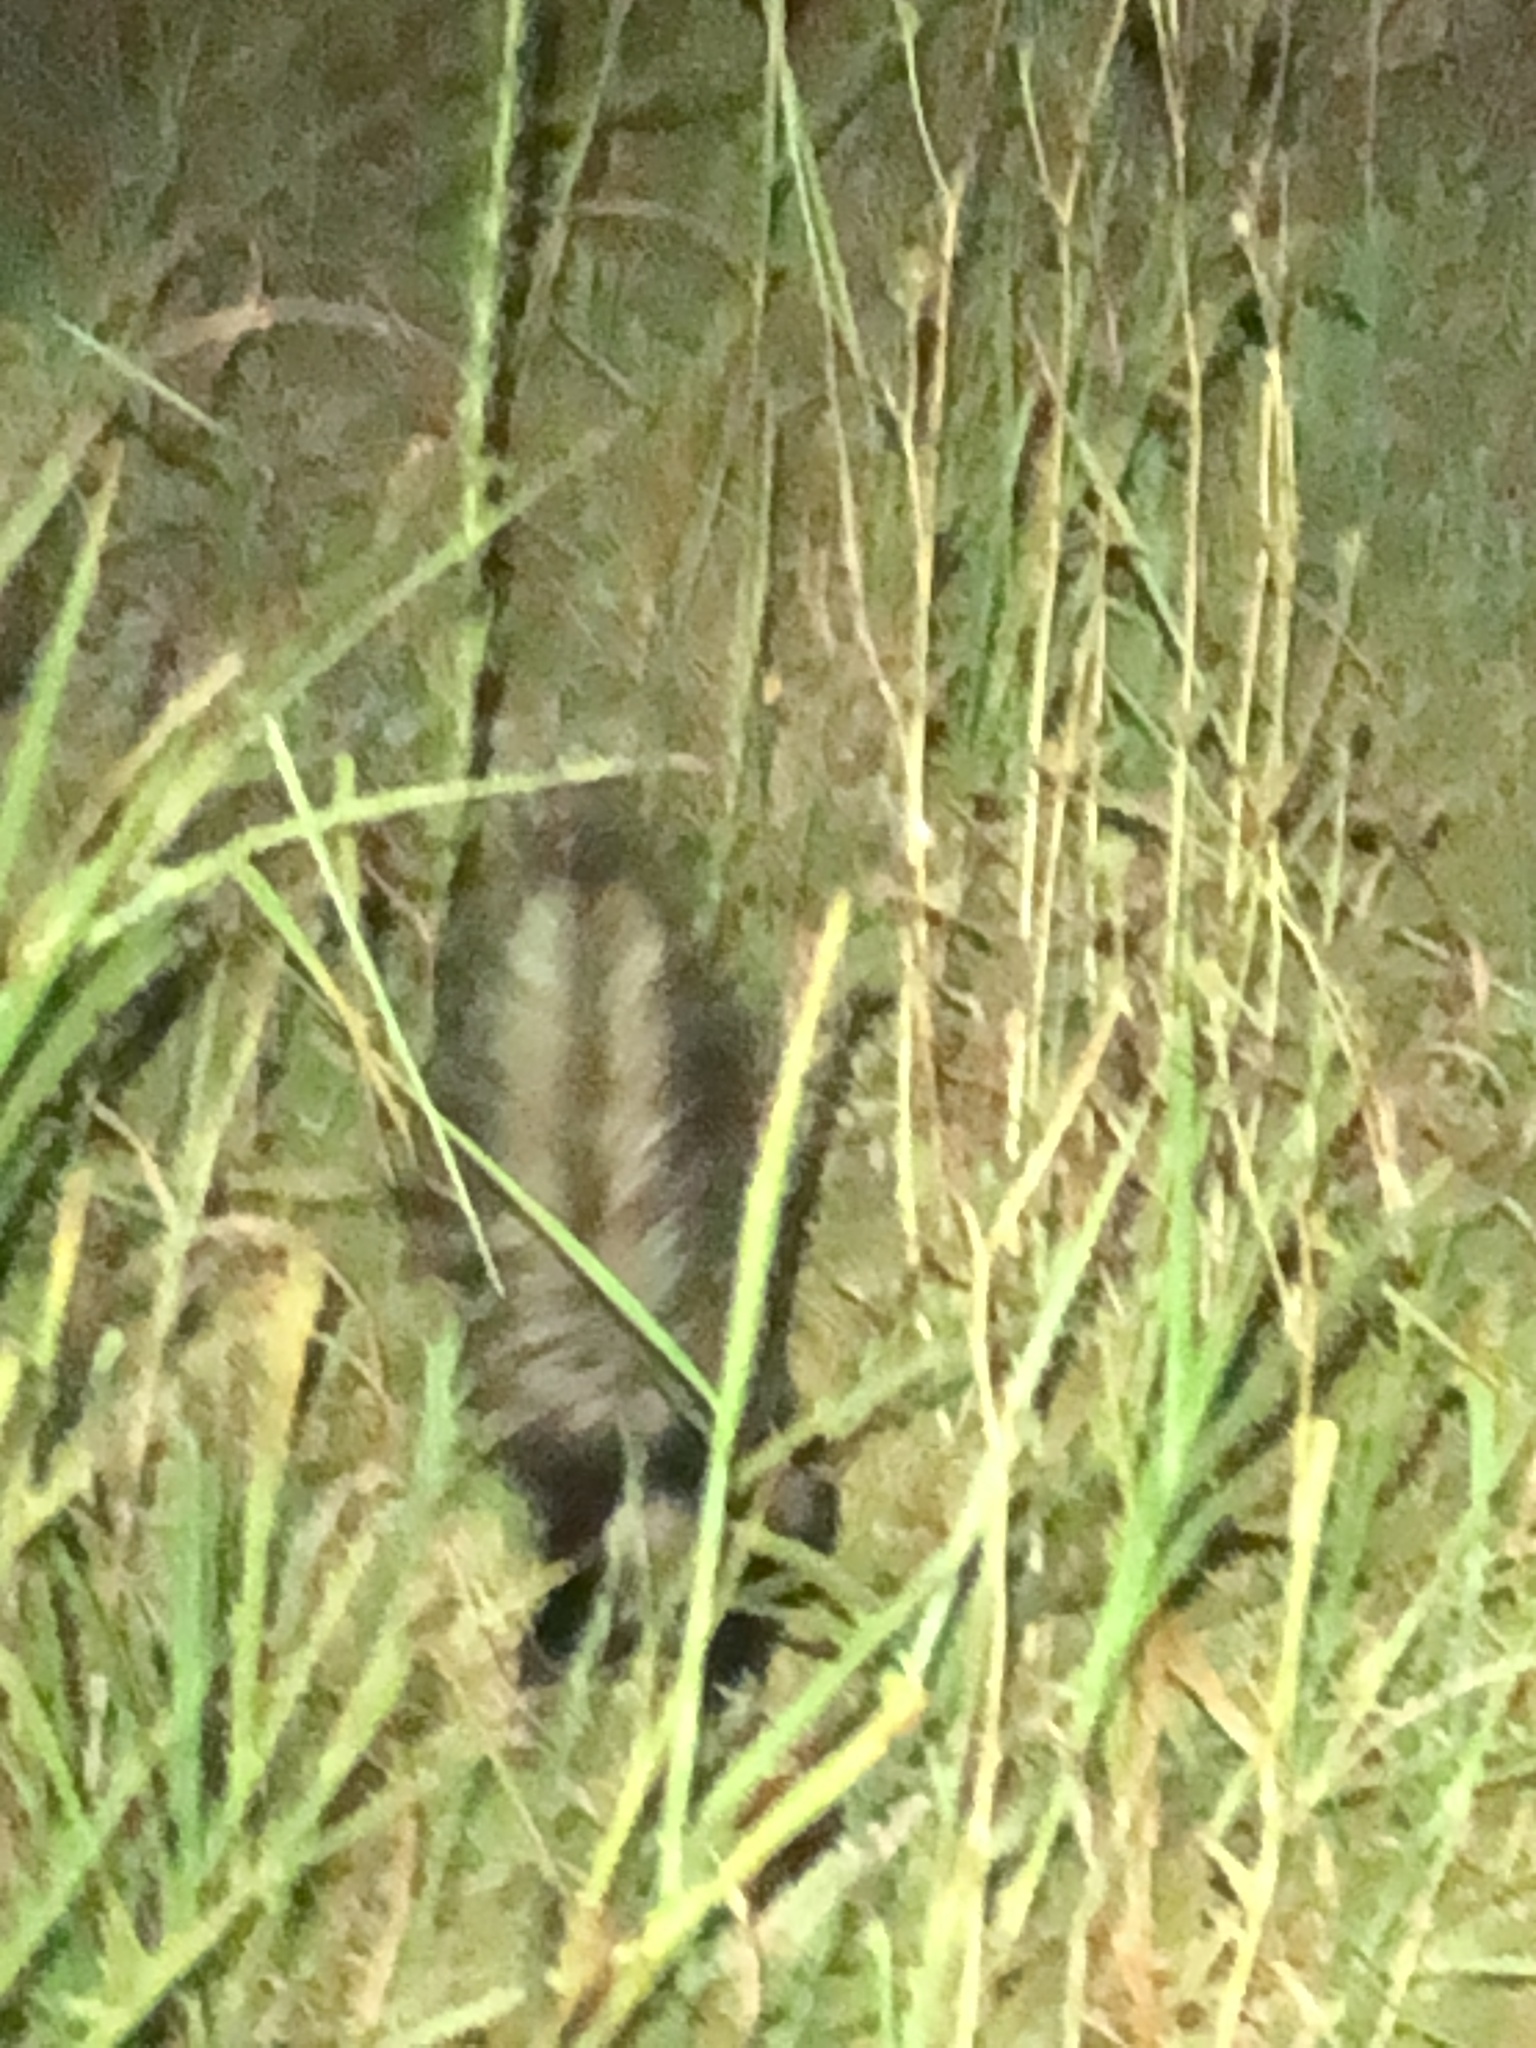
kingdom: Animalia
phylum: Chordata
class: Mammalia
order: Carnivora
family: Mephitidae
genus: Mephitis
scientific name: Mephitis mephitis
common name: Striped skunk
